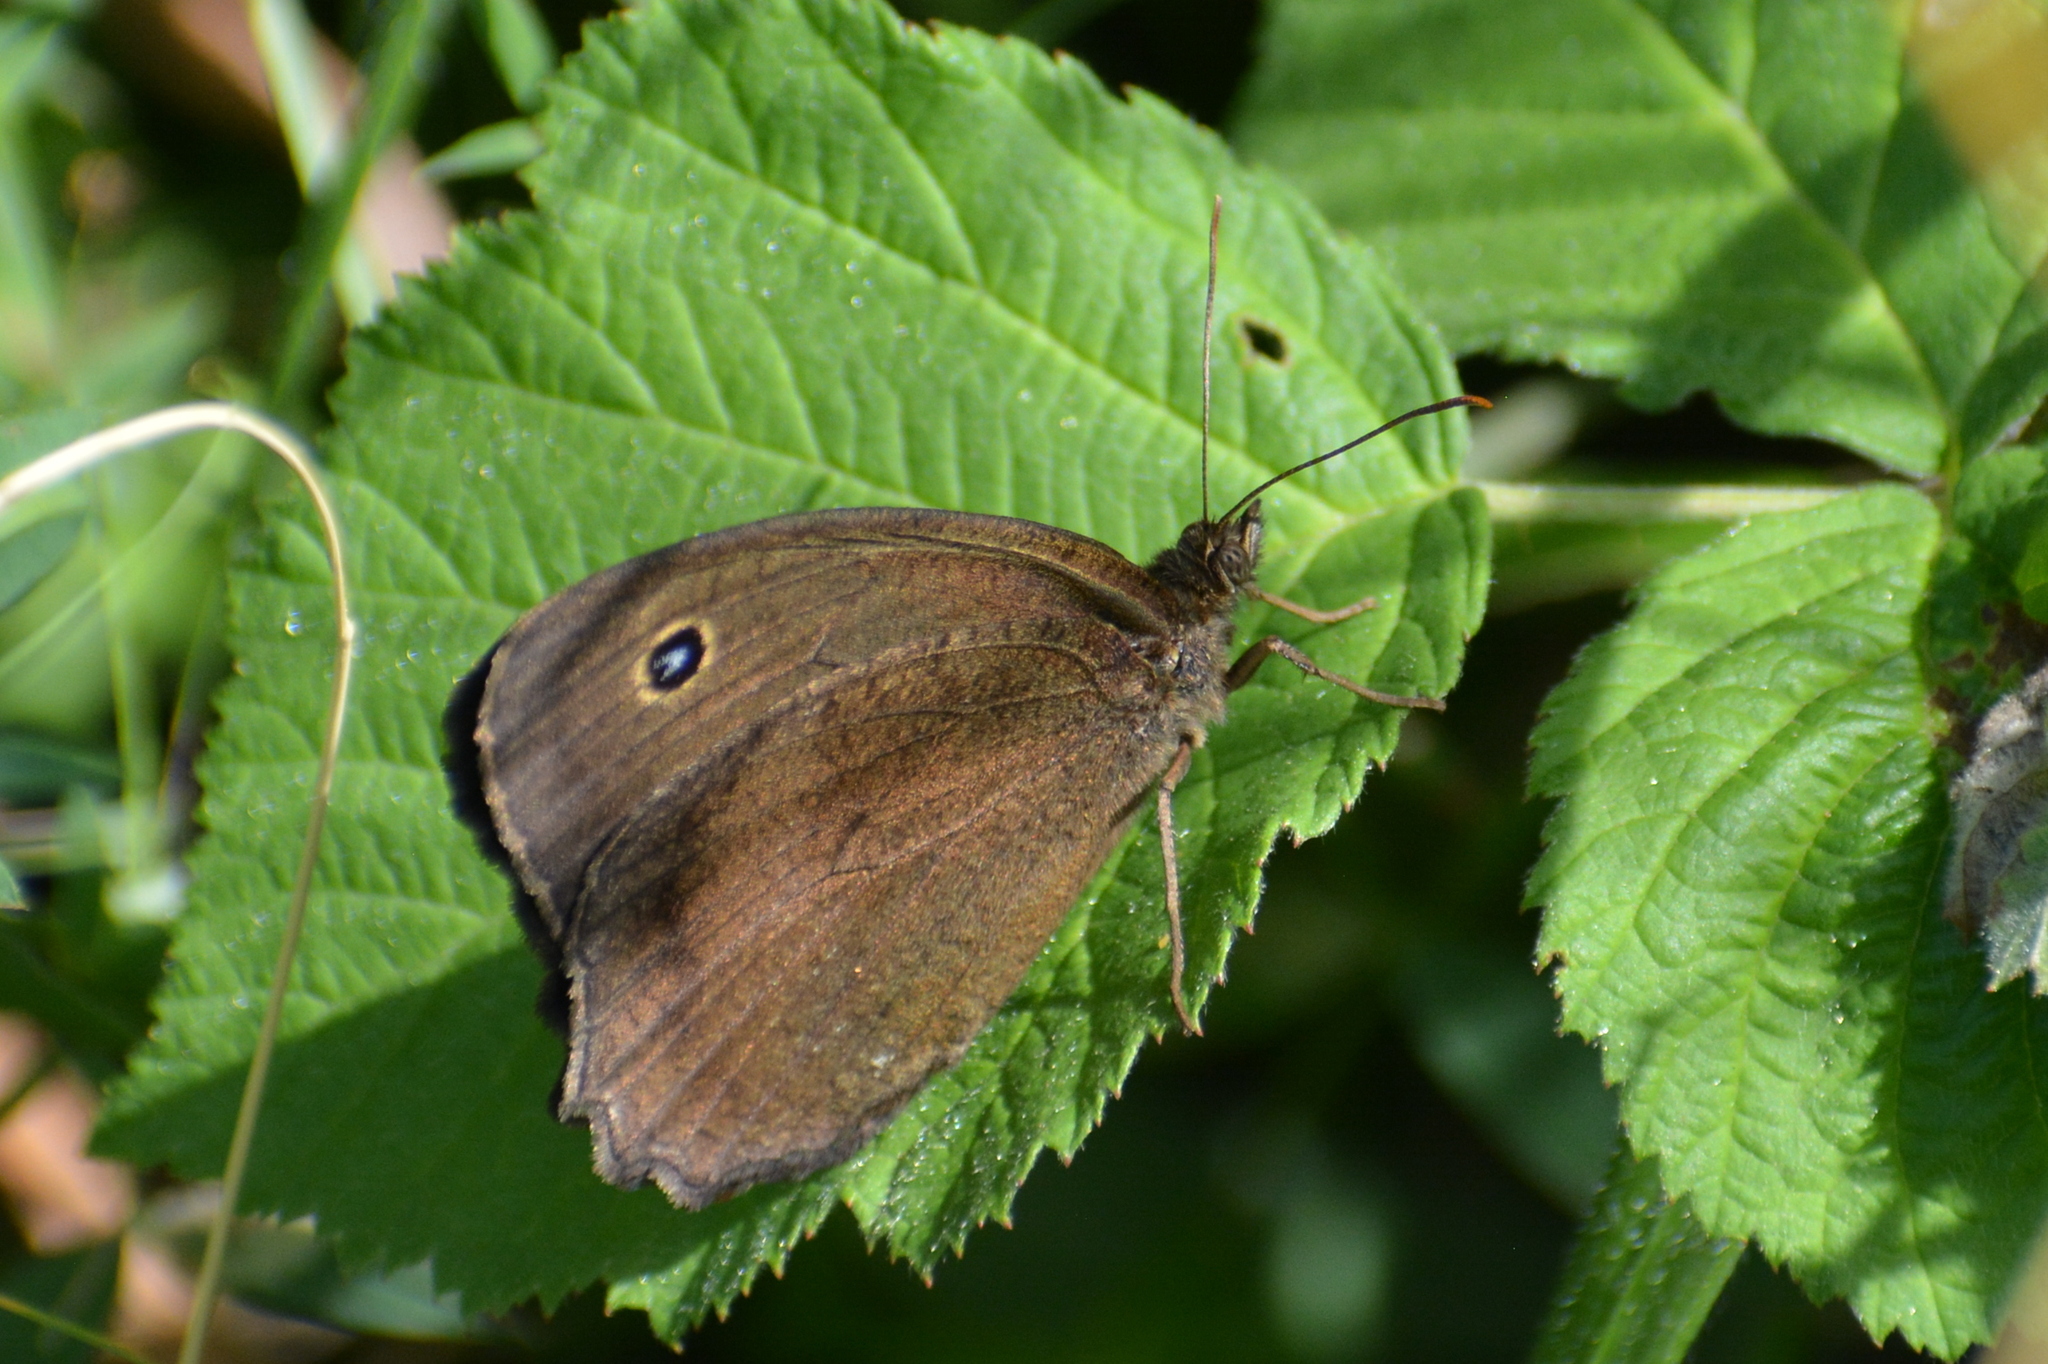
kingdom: Animalia
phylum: Arthropoda
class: Insecta
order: Lepidoptera
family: Nymphalidae
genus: Minois
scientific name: Minois dryas
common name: Dryad
